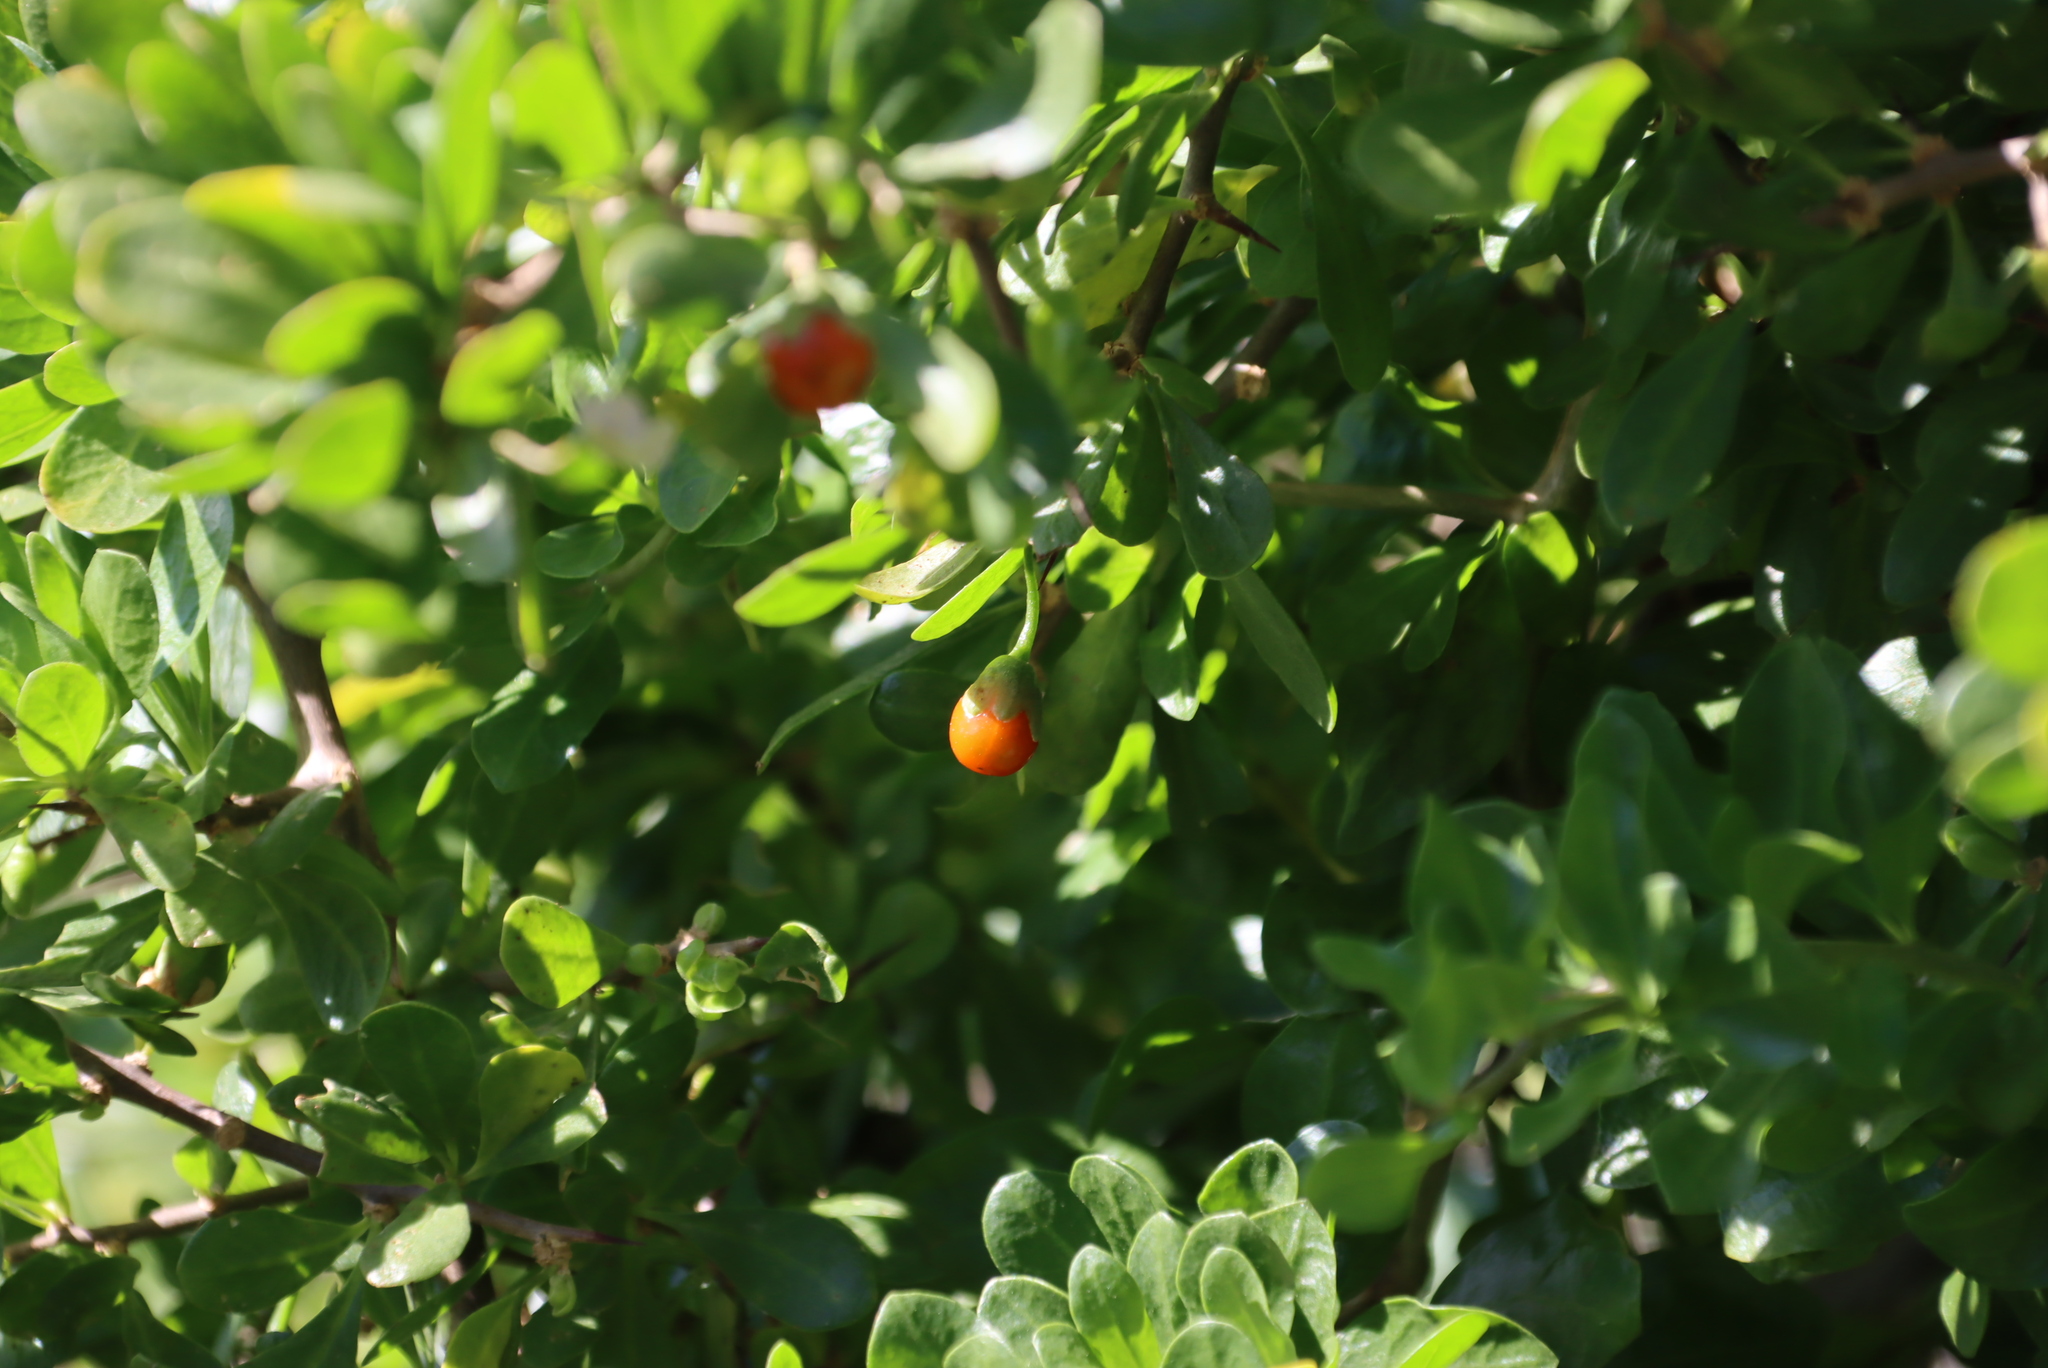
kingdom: Plantae
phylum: Tracheophyta
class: Magnoliopsida
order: Solanales
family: Solanaceae
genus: Lycium
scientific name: Lycium ferocissimum
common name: African boxthorn
